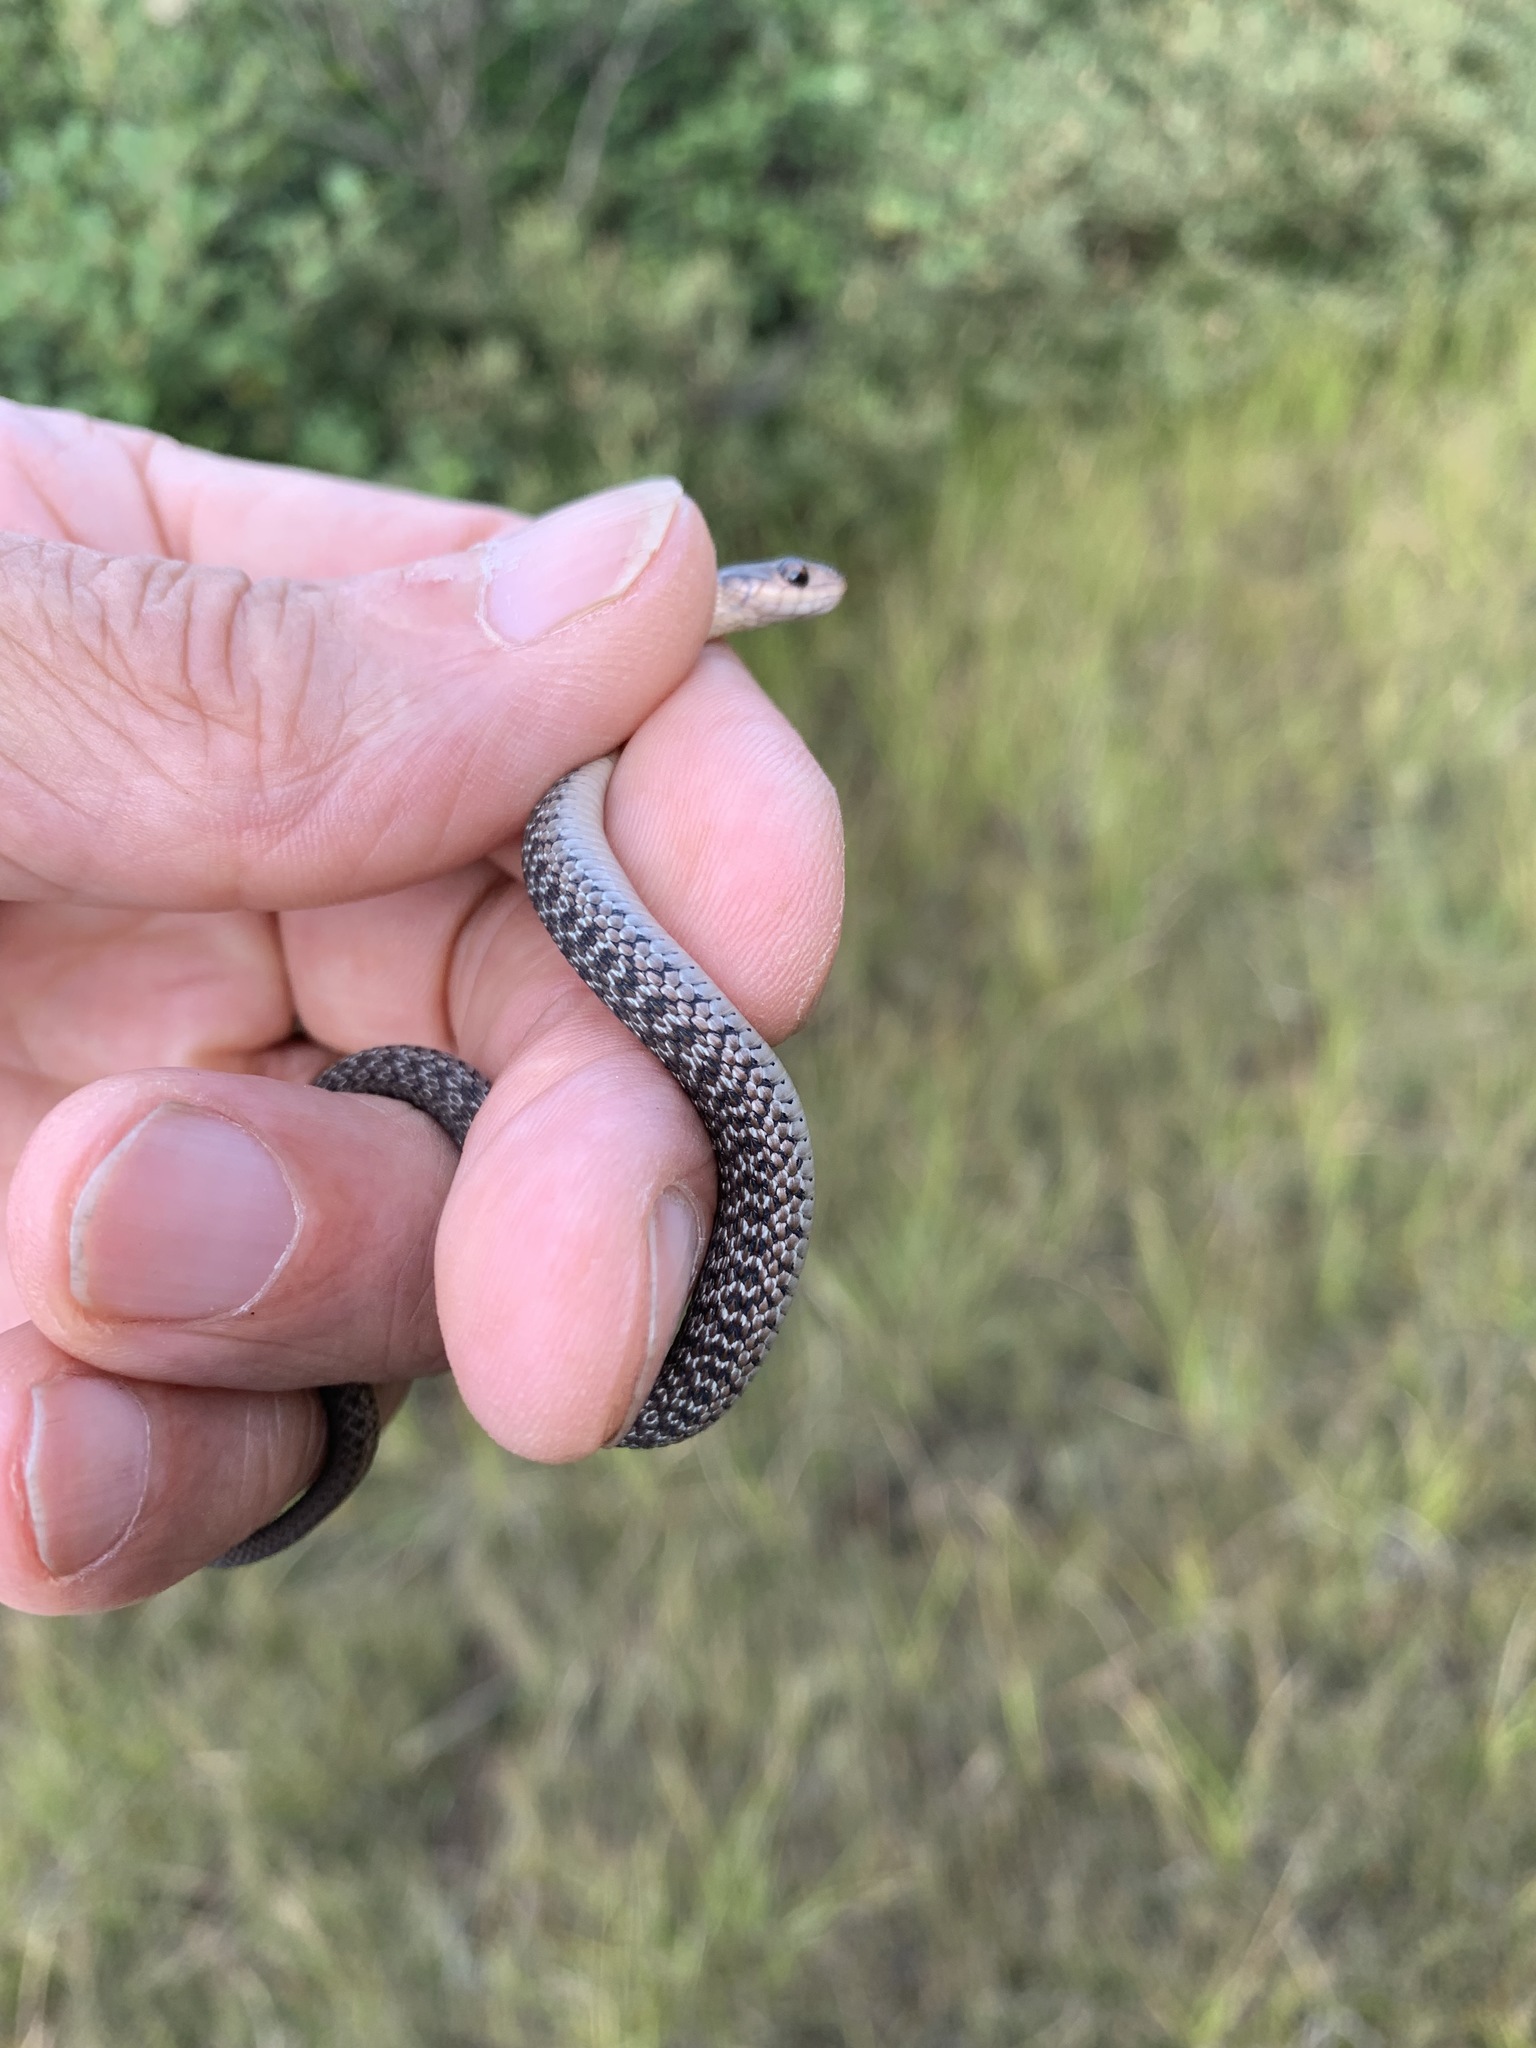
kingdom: Animalia
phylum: Chordata
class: Squamata
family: Colubridae
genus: Thamnophis
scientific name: Thamnophis sirtalis
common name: Common garter snake
